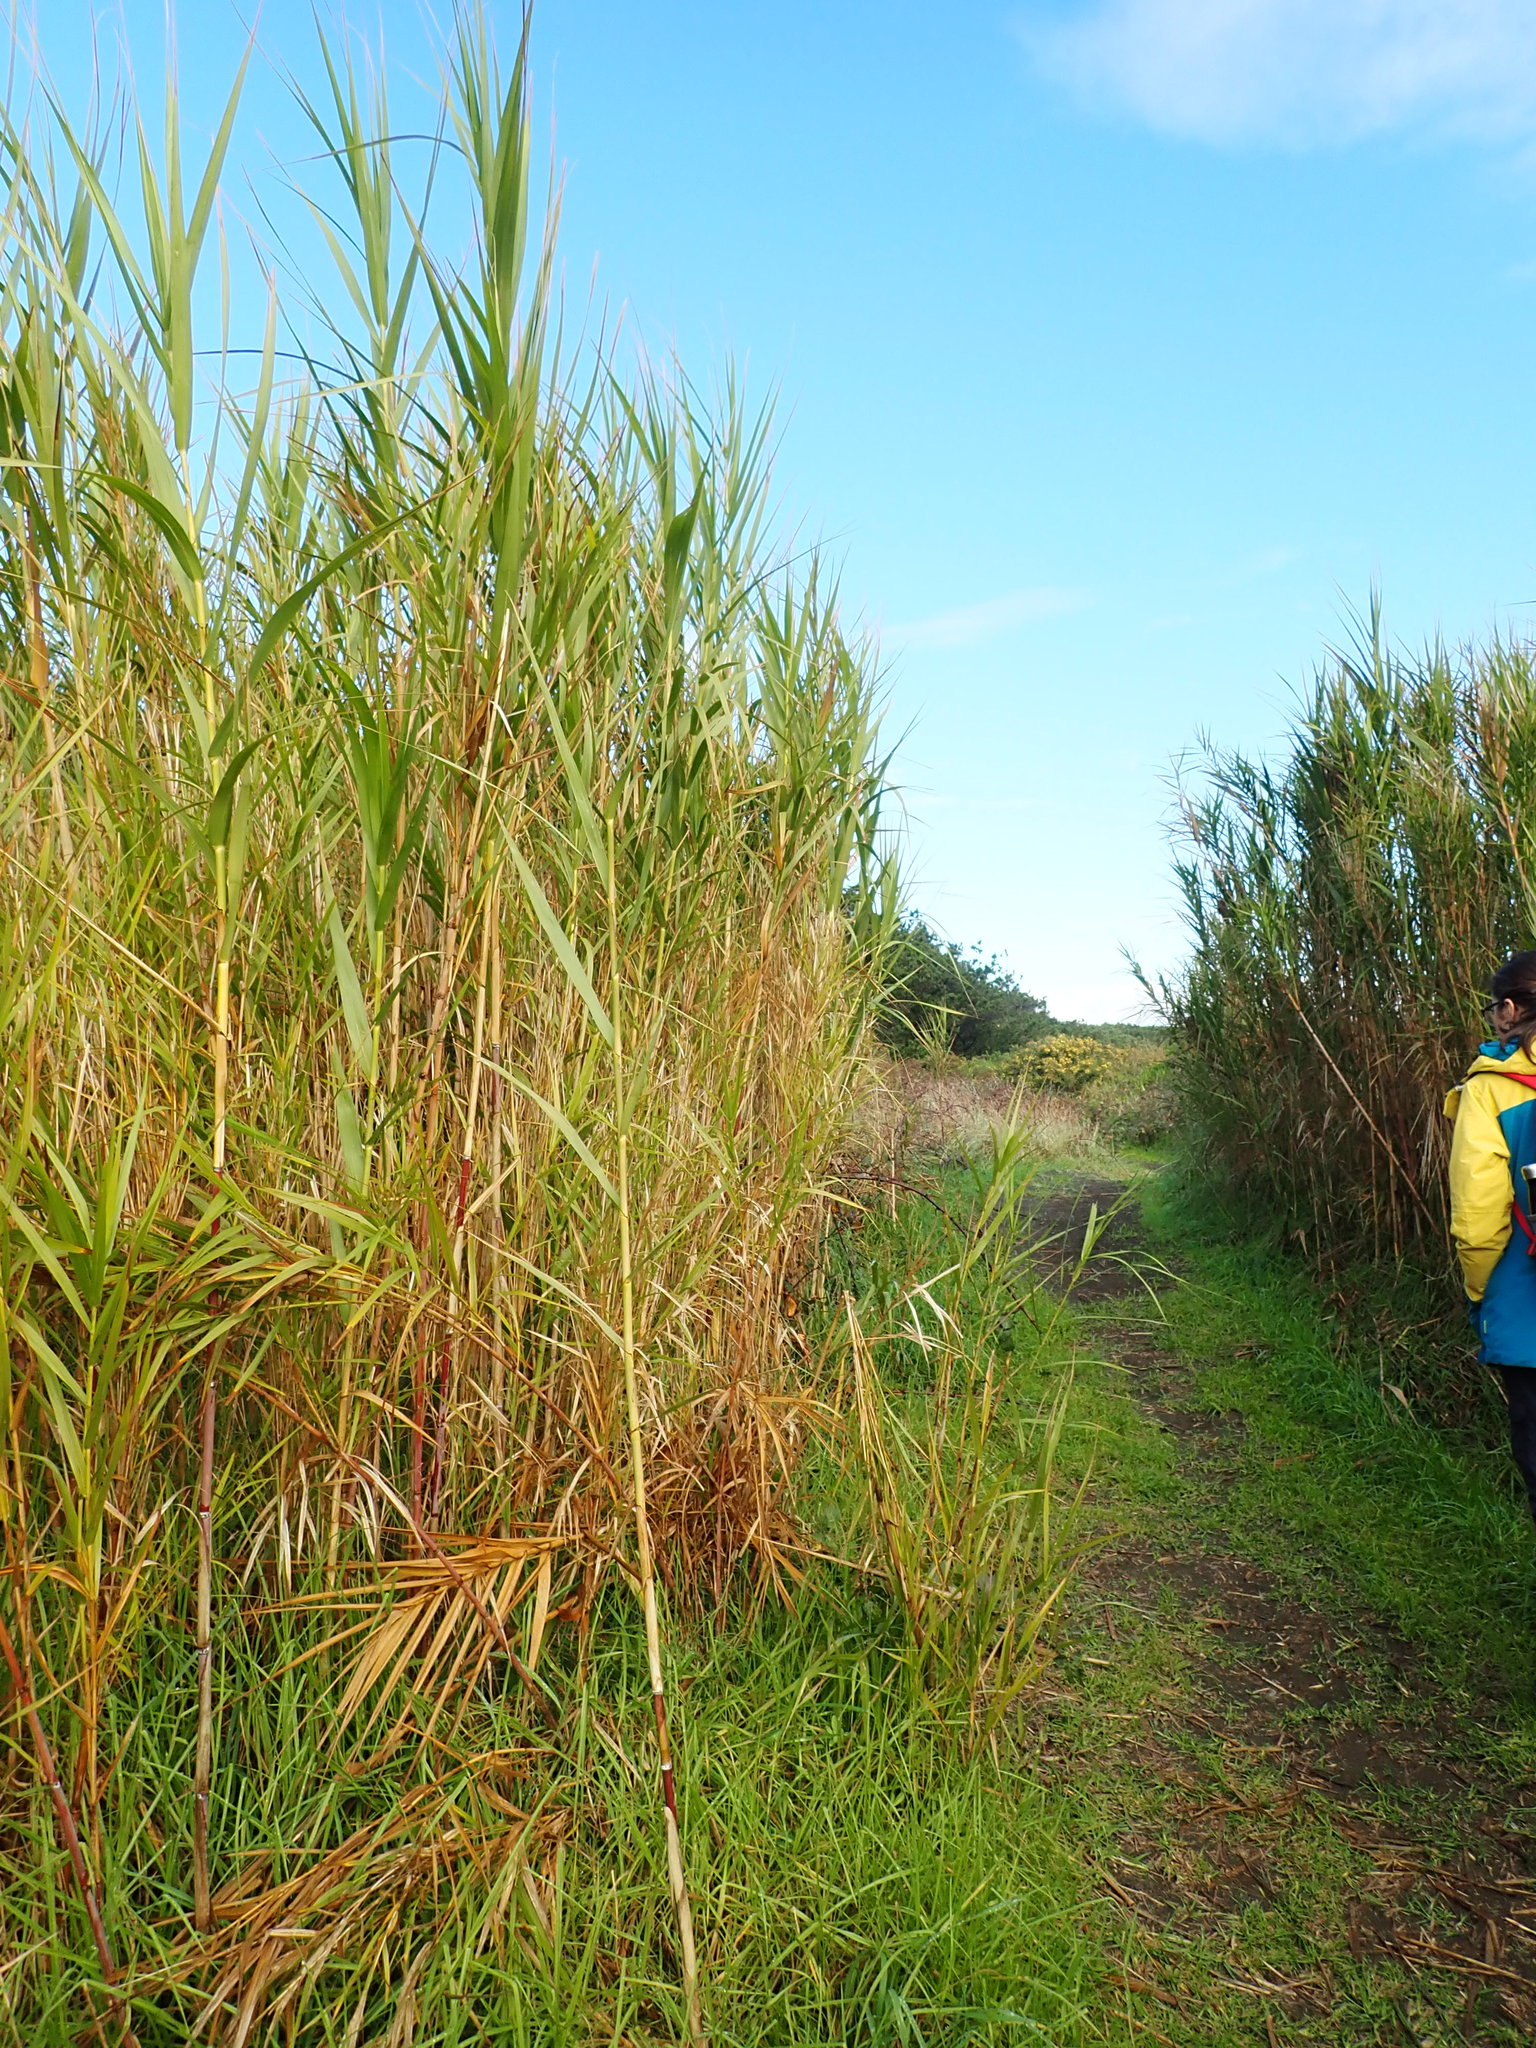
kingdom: Plantae
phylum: Tracheophyta
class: Liliopsida
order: Poales
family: Poaceae
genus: Phragmites
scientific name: Phragmites karka
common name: Tropical reed
